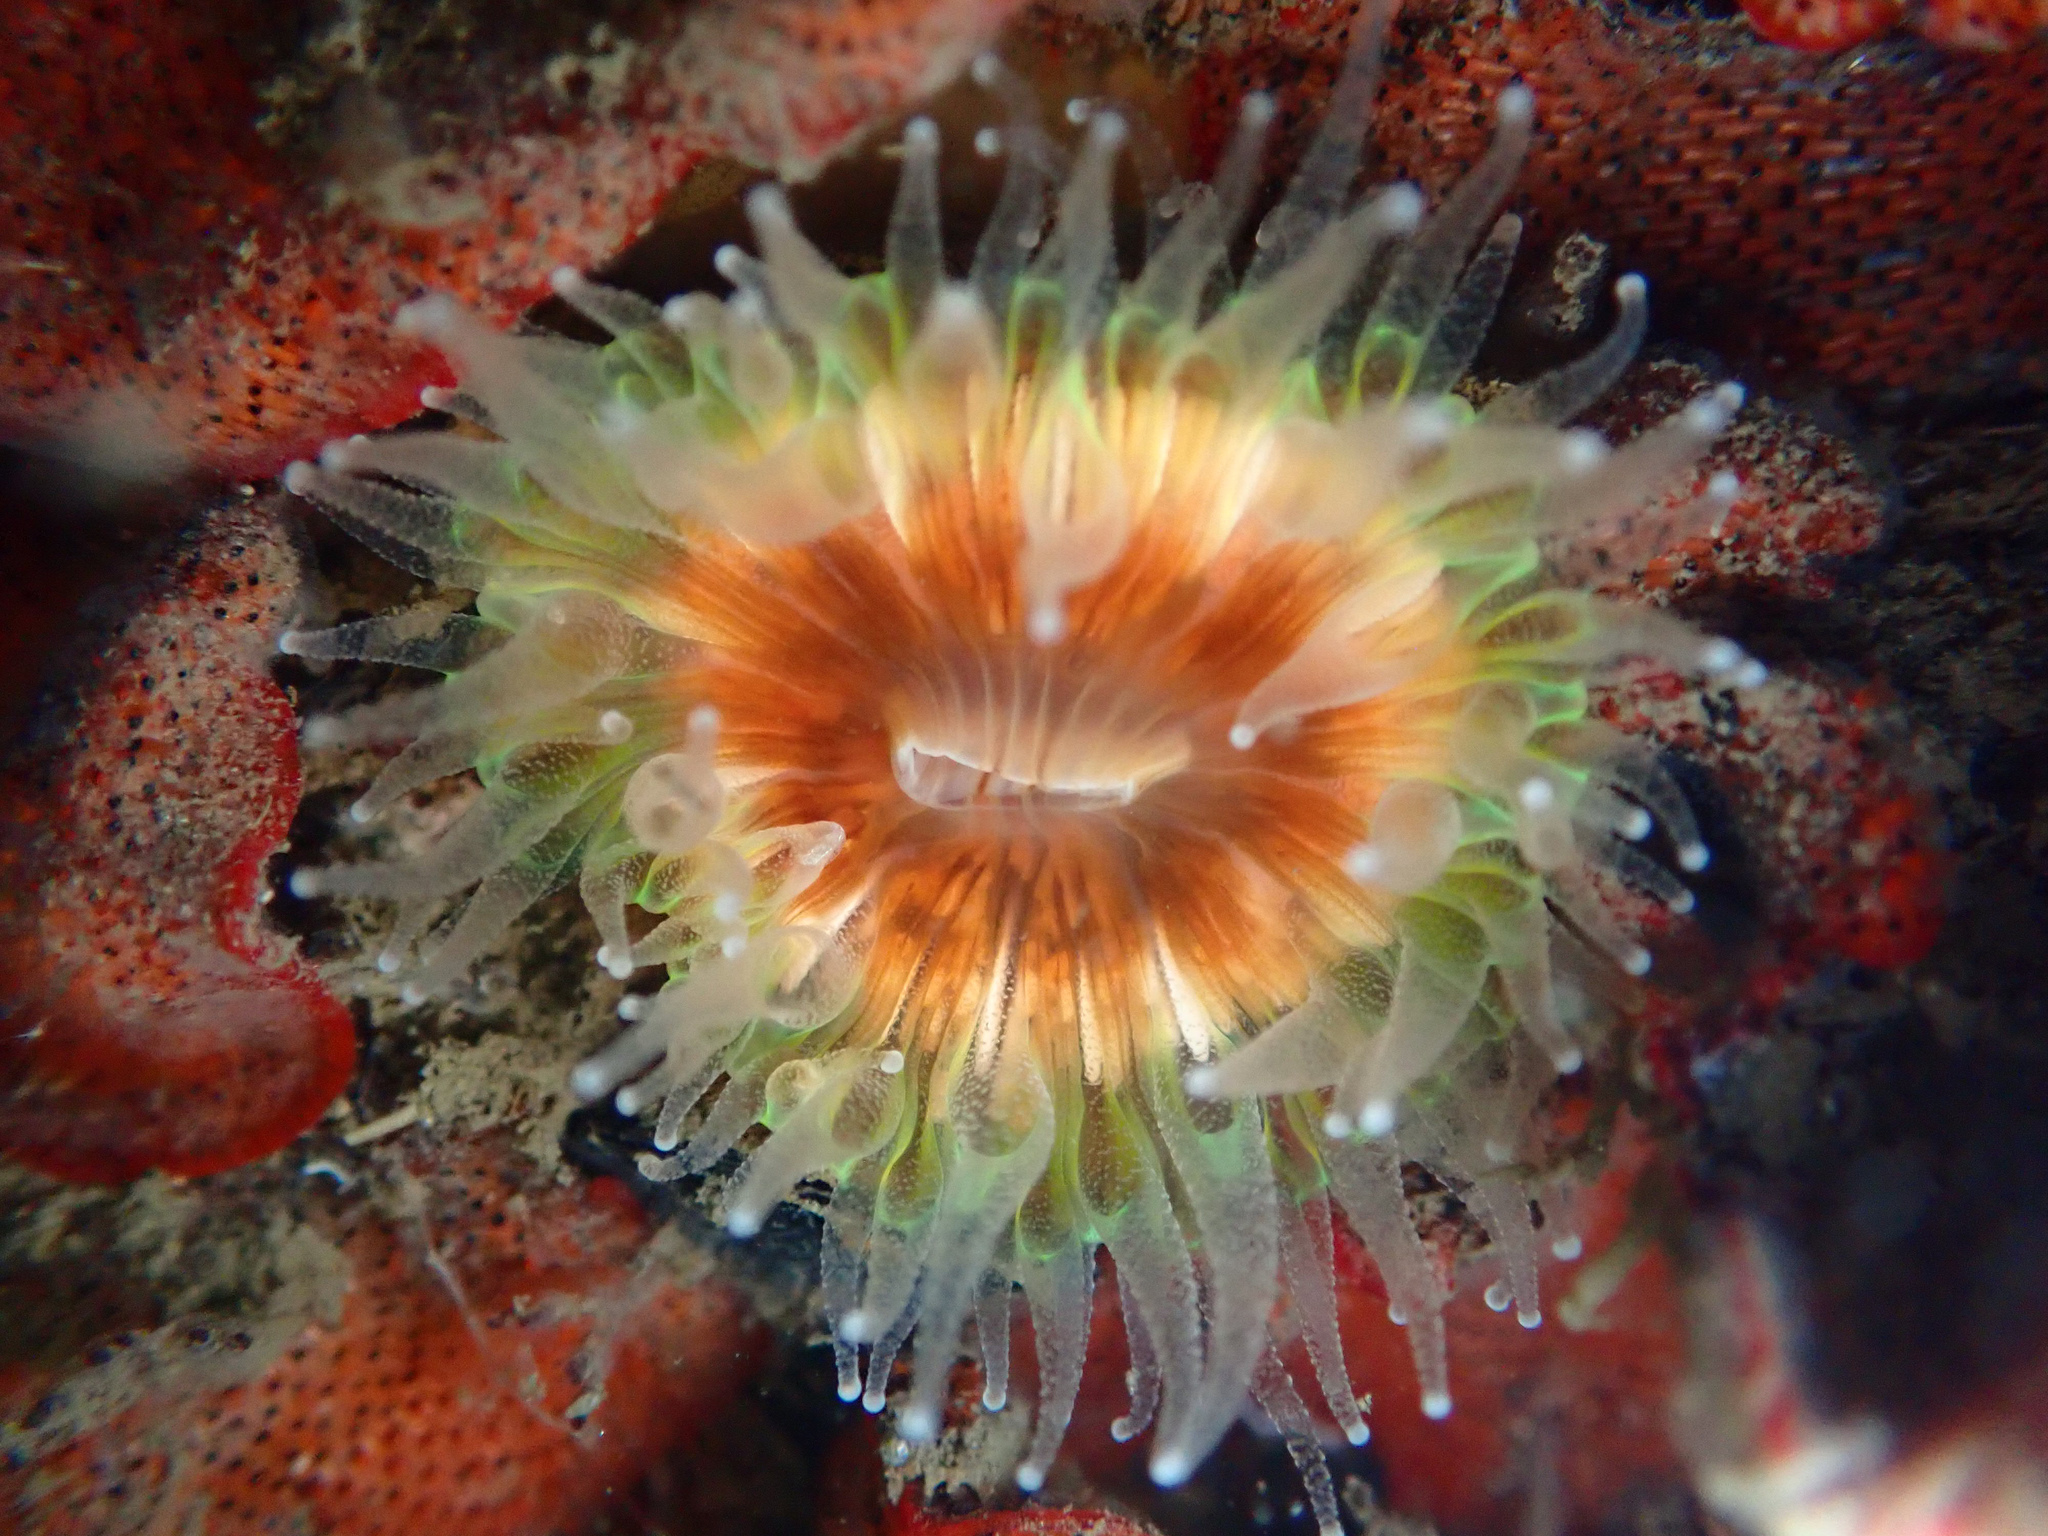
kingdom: Animalia
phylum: Cnidaria
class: Anthozoa
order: Scleractinia
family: Caryophylliidae
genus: Paracyathus
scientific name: Paracyathus stearnsii
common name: Brown stony coral
